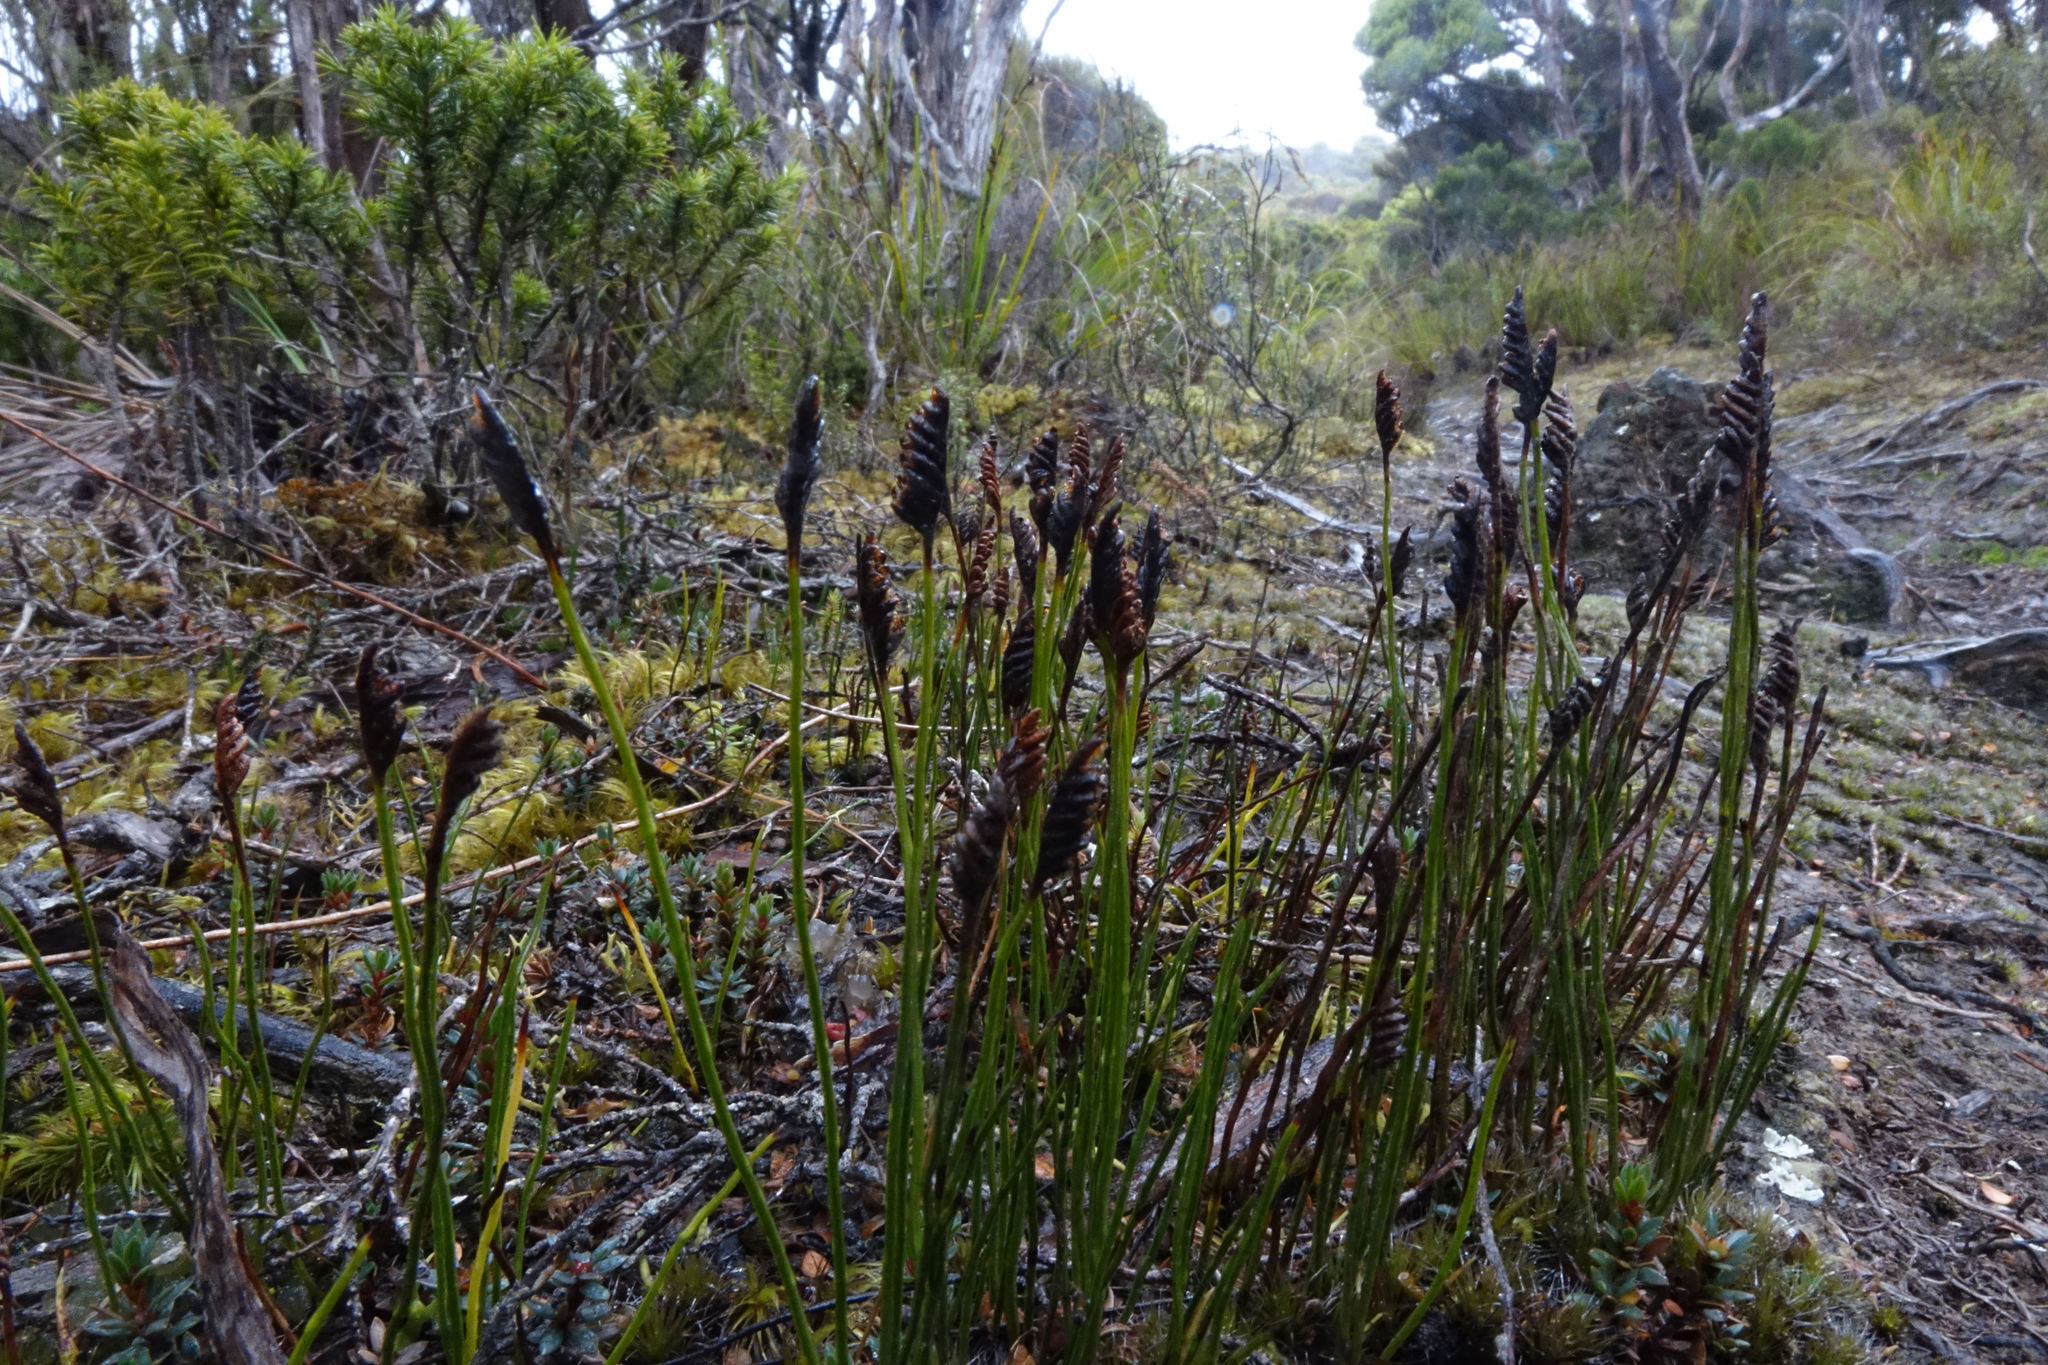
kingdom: Plantae
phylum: Tracheophyta
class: Polypodiopsida
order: Schizaeales
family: Schizaeaceae
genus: Microschizaea
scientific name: Microschizaea australis
